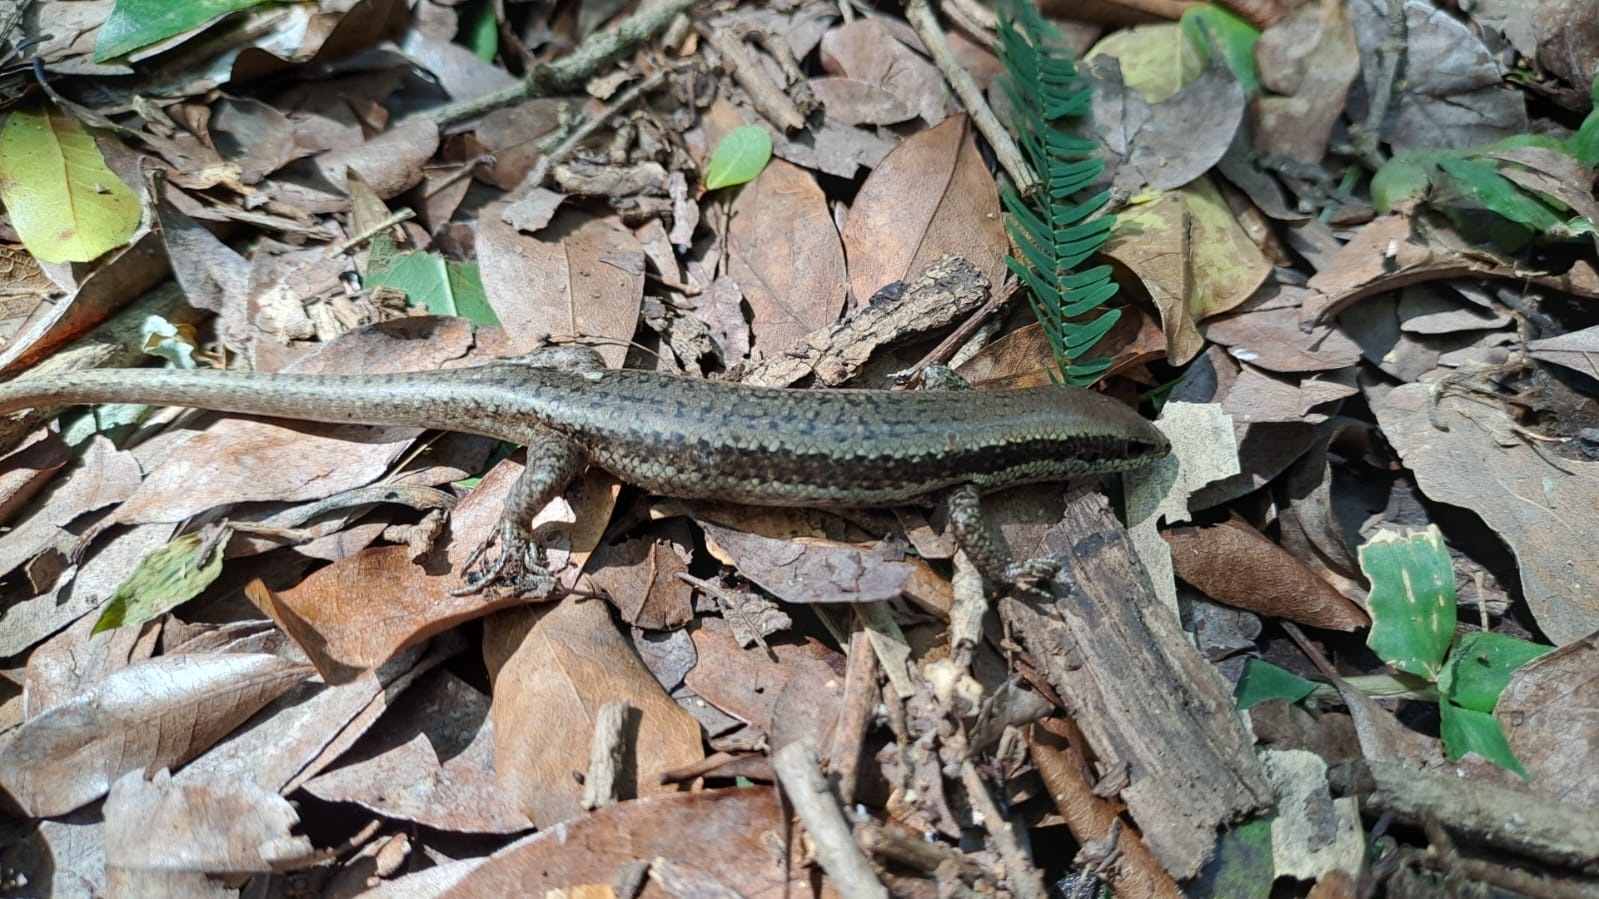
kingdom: Animalia
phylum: Chordata
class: Squamata
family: Scincidae
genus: Notomabuya
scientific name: Notomabuya frenata
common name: Cope's mabuya
